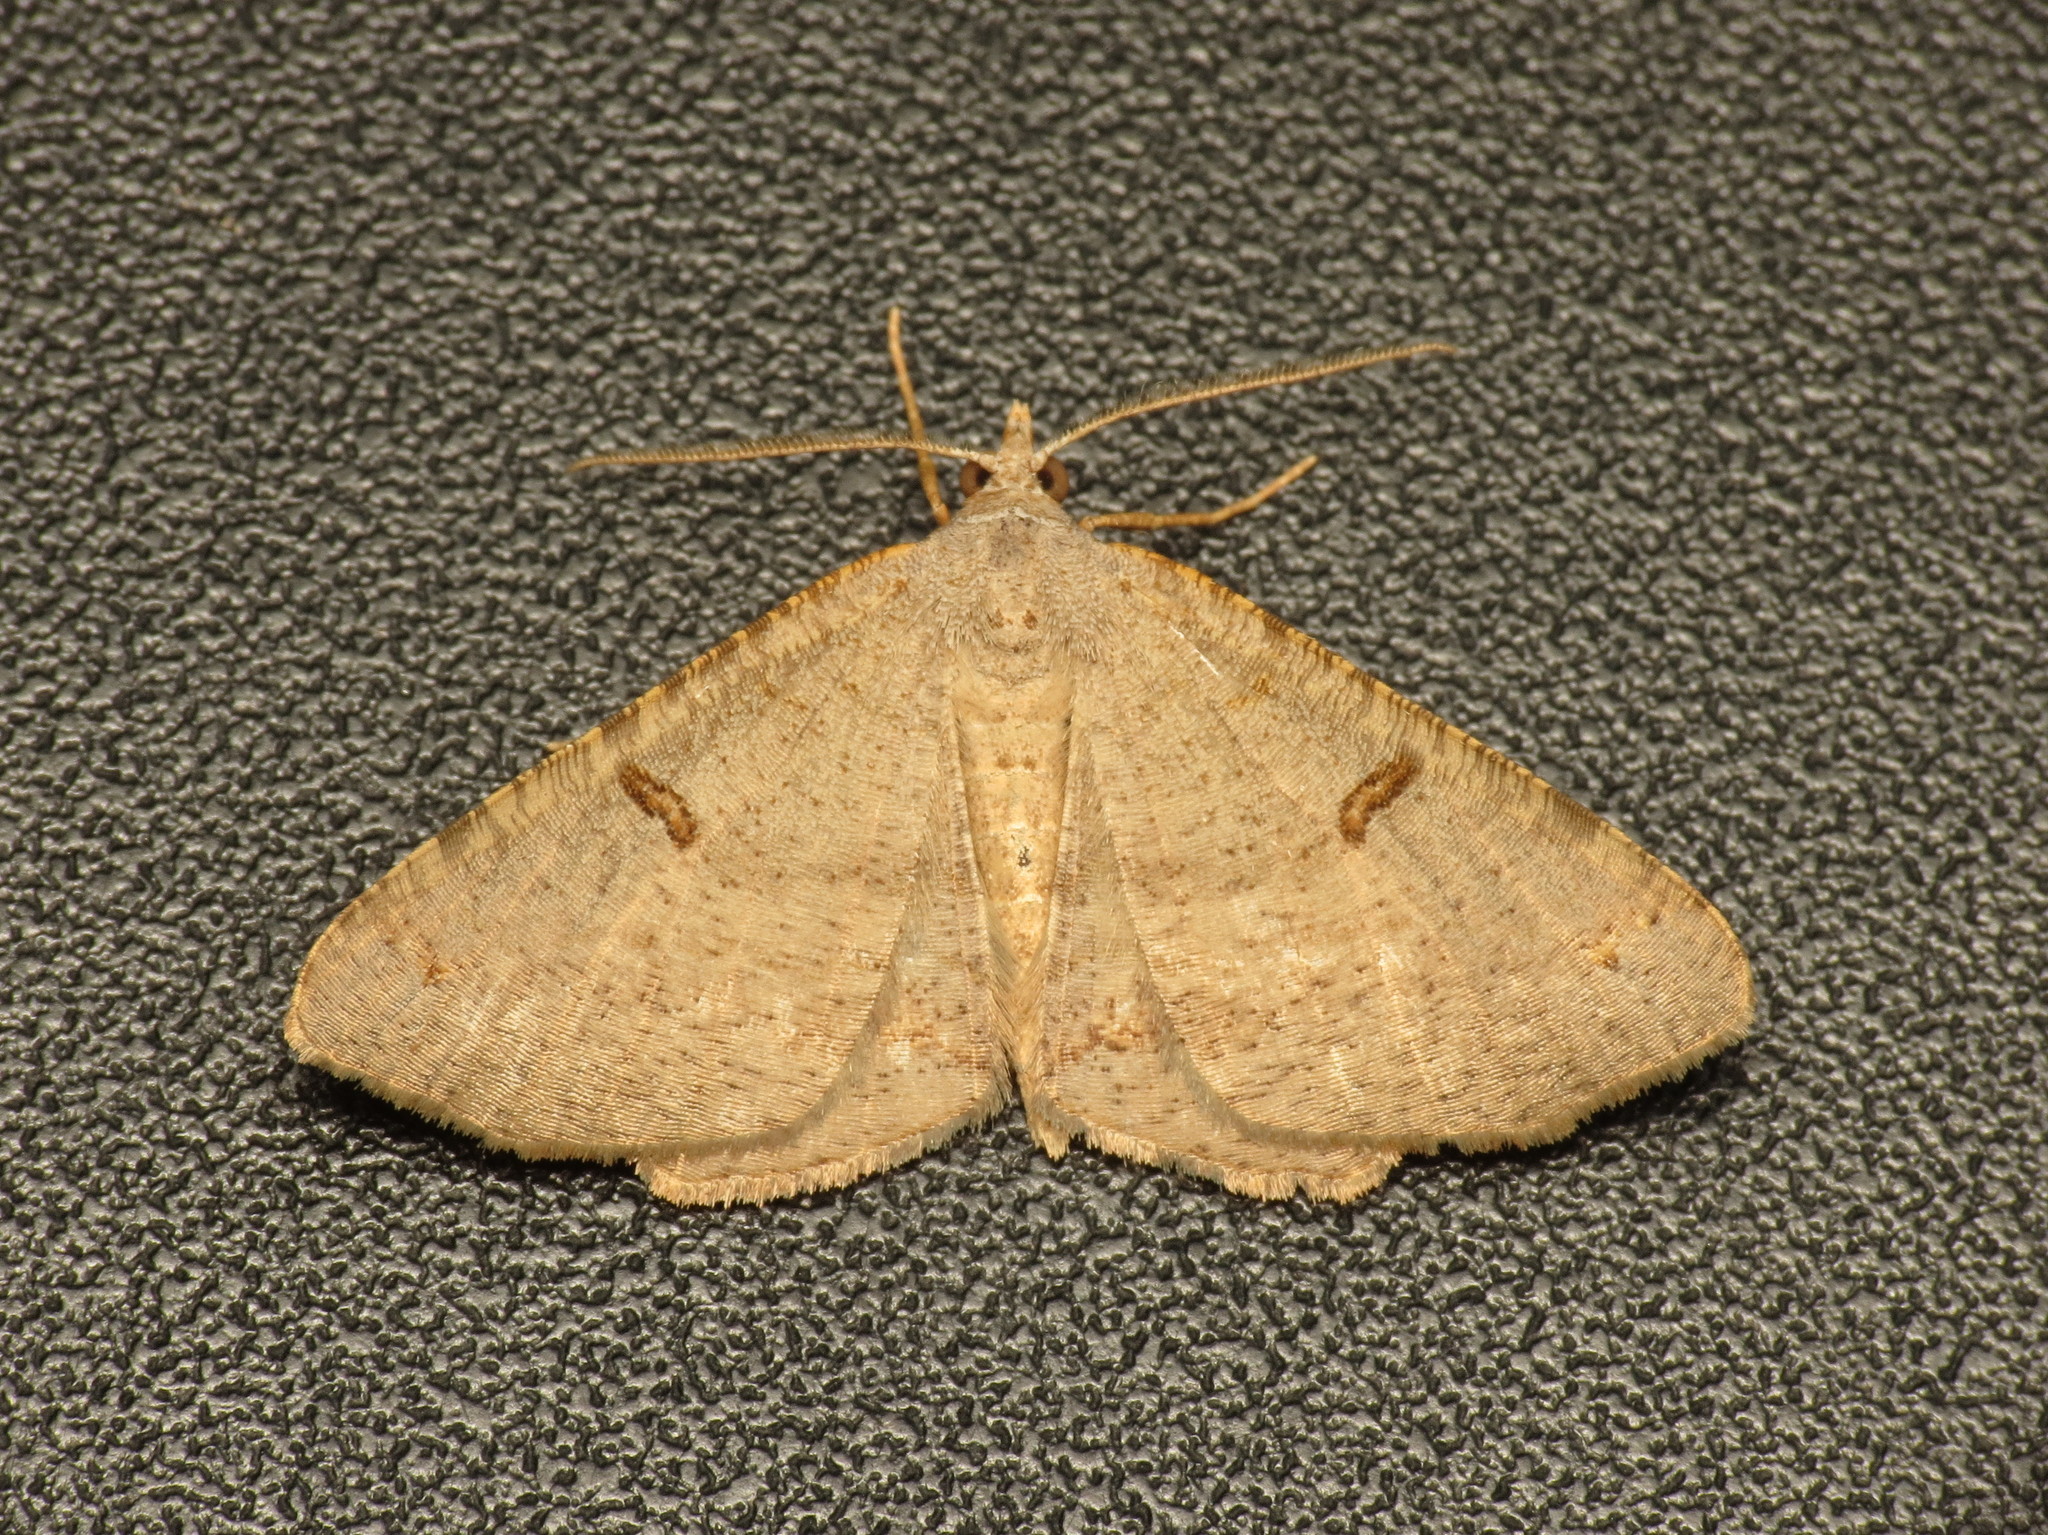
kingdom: Animalia
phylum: Arthropoda
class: Insecta
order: Lepidoptera
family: Geometridae
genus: Dissomorphia
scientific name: Dissomorphia australiaria
